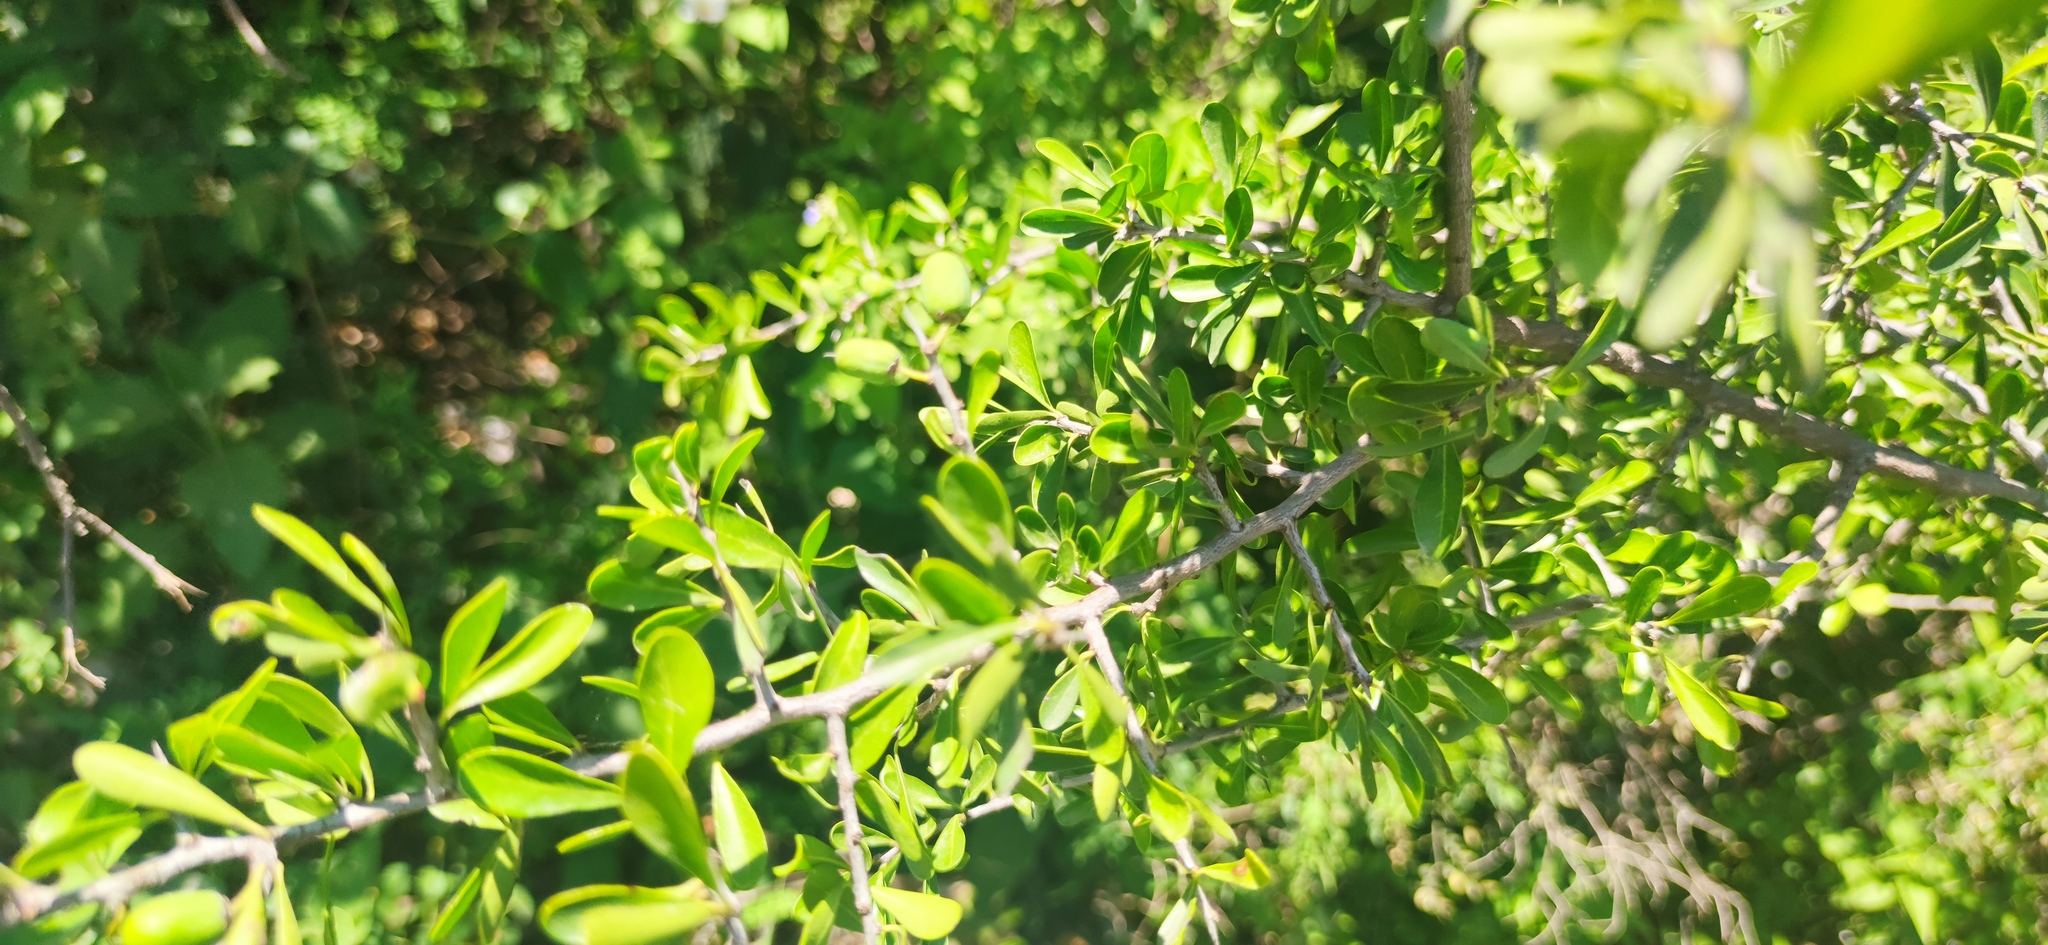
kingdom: Plantae
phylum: Tracheophyta
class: Magnoliopsida
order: Lamiales
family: Oleaceae
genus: Forestiera
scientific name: Forestiera angustifolia
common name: Elbowbush
